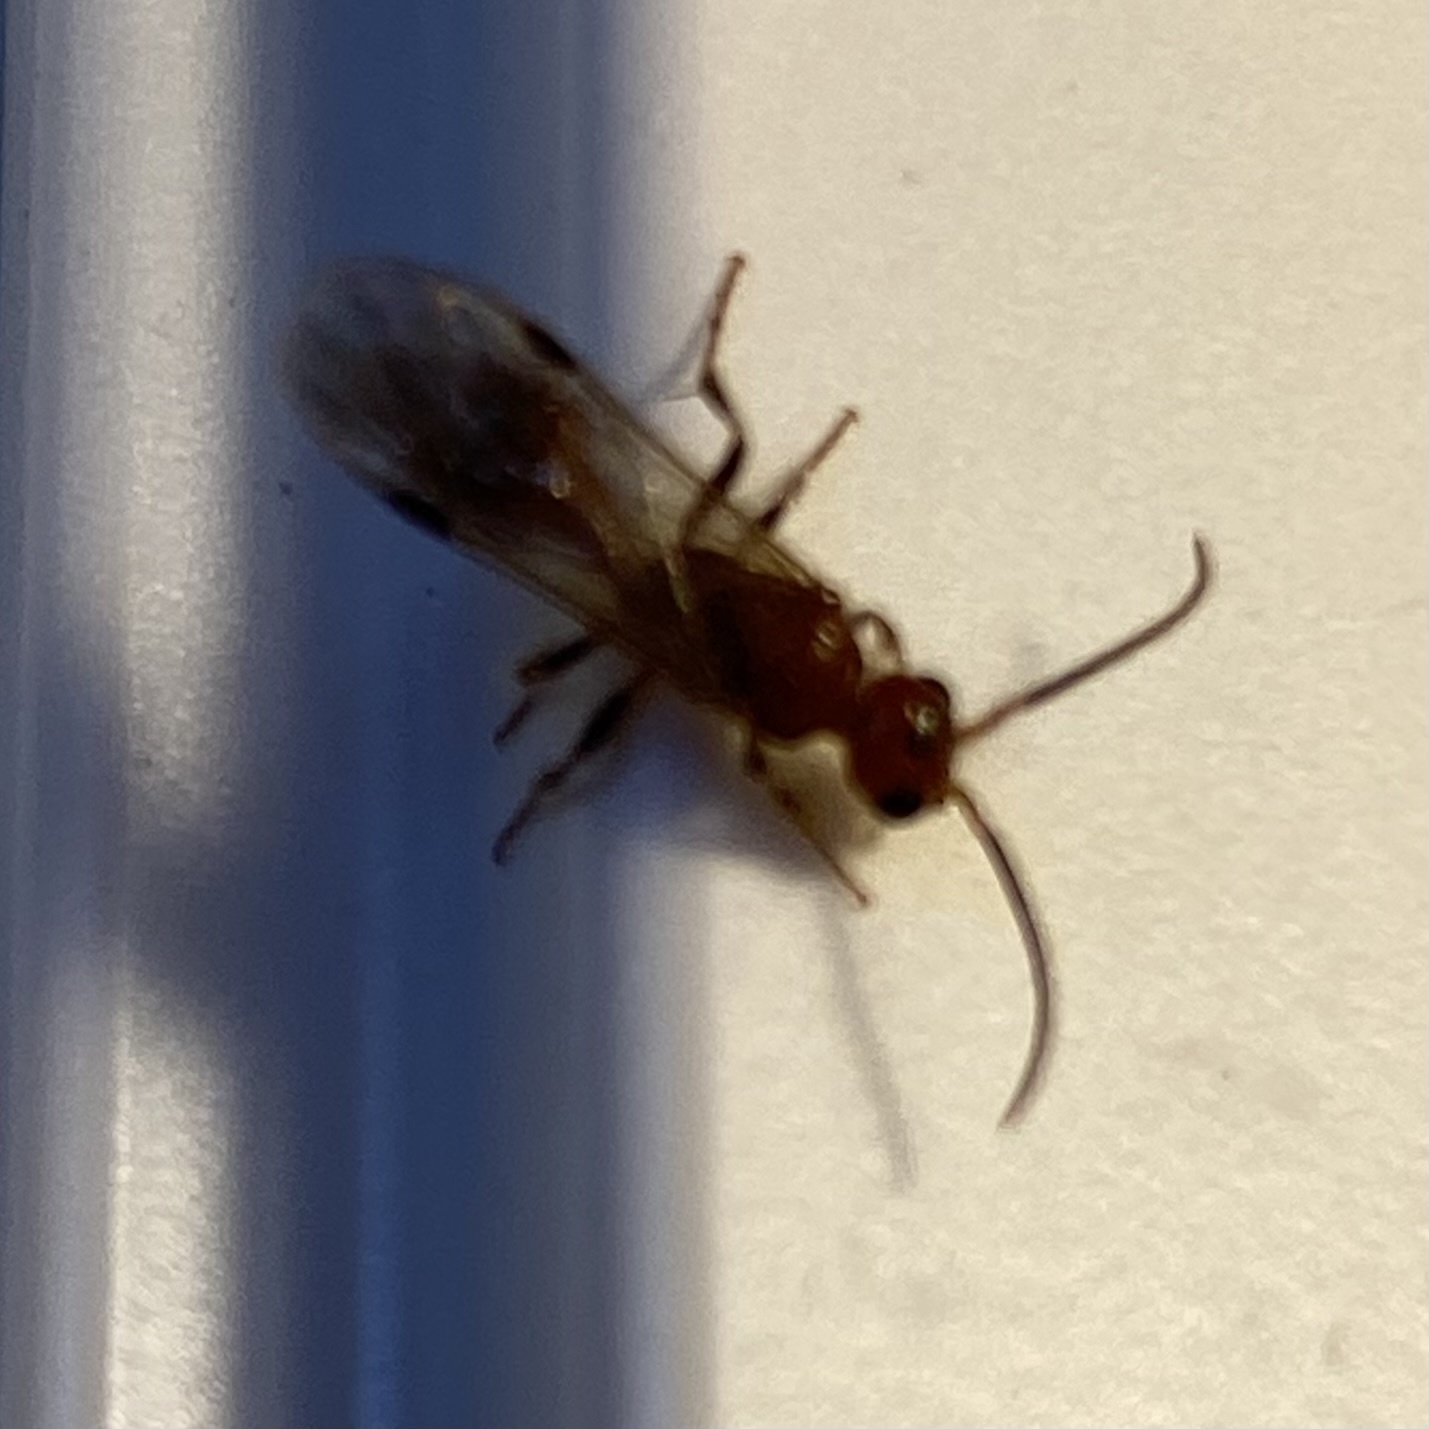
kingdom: Animalia
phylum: Arthropoda
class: Insecta
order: Hymenoptera
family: Mutillidae
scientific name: Mutillidae
